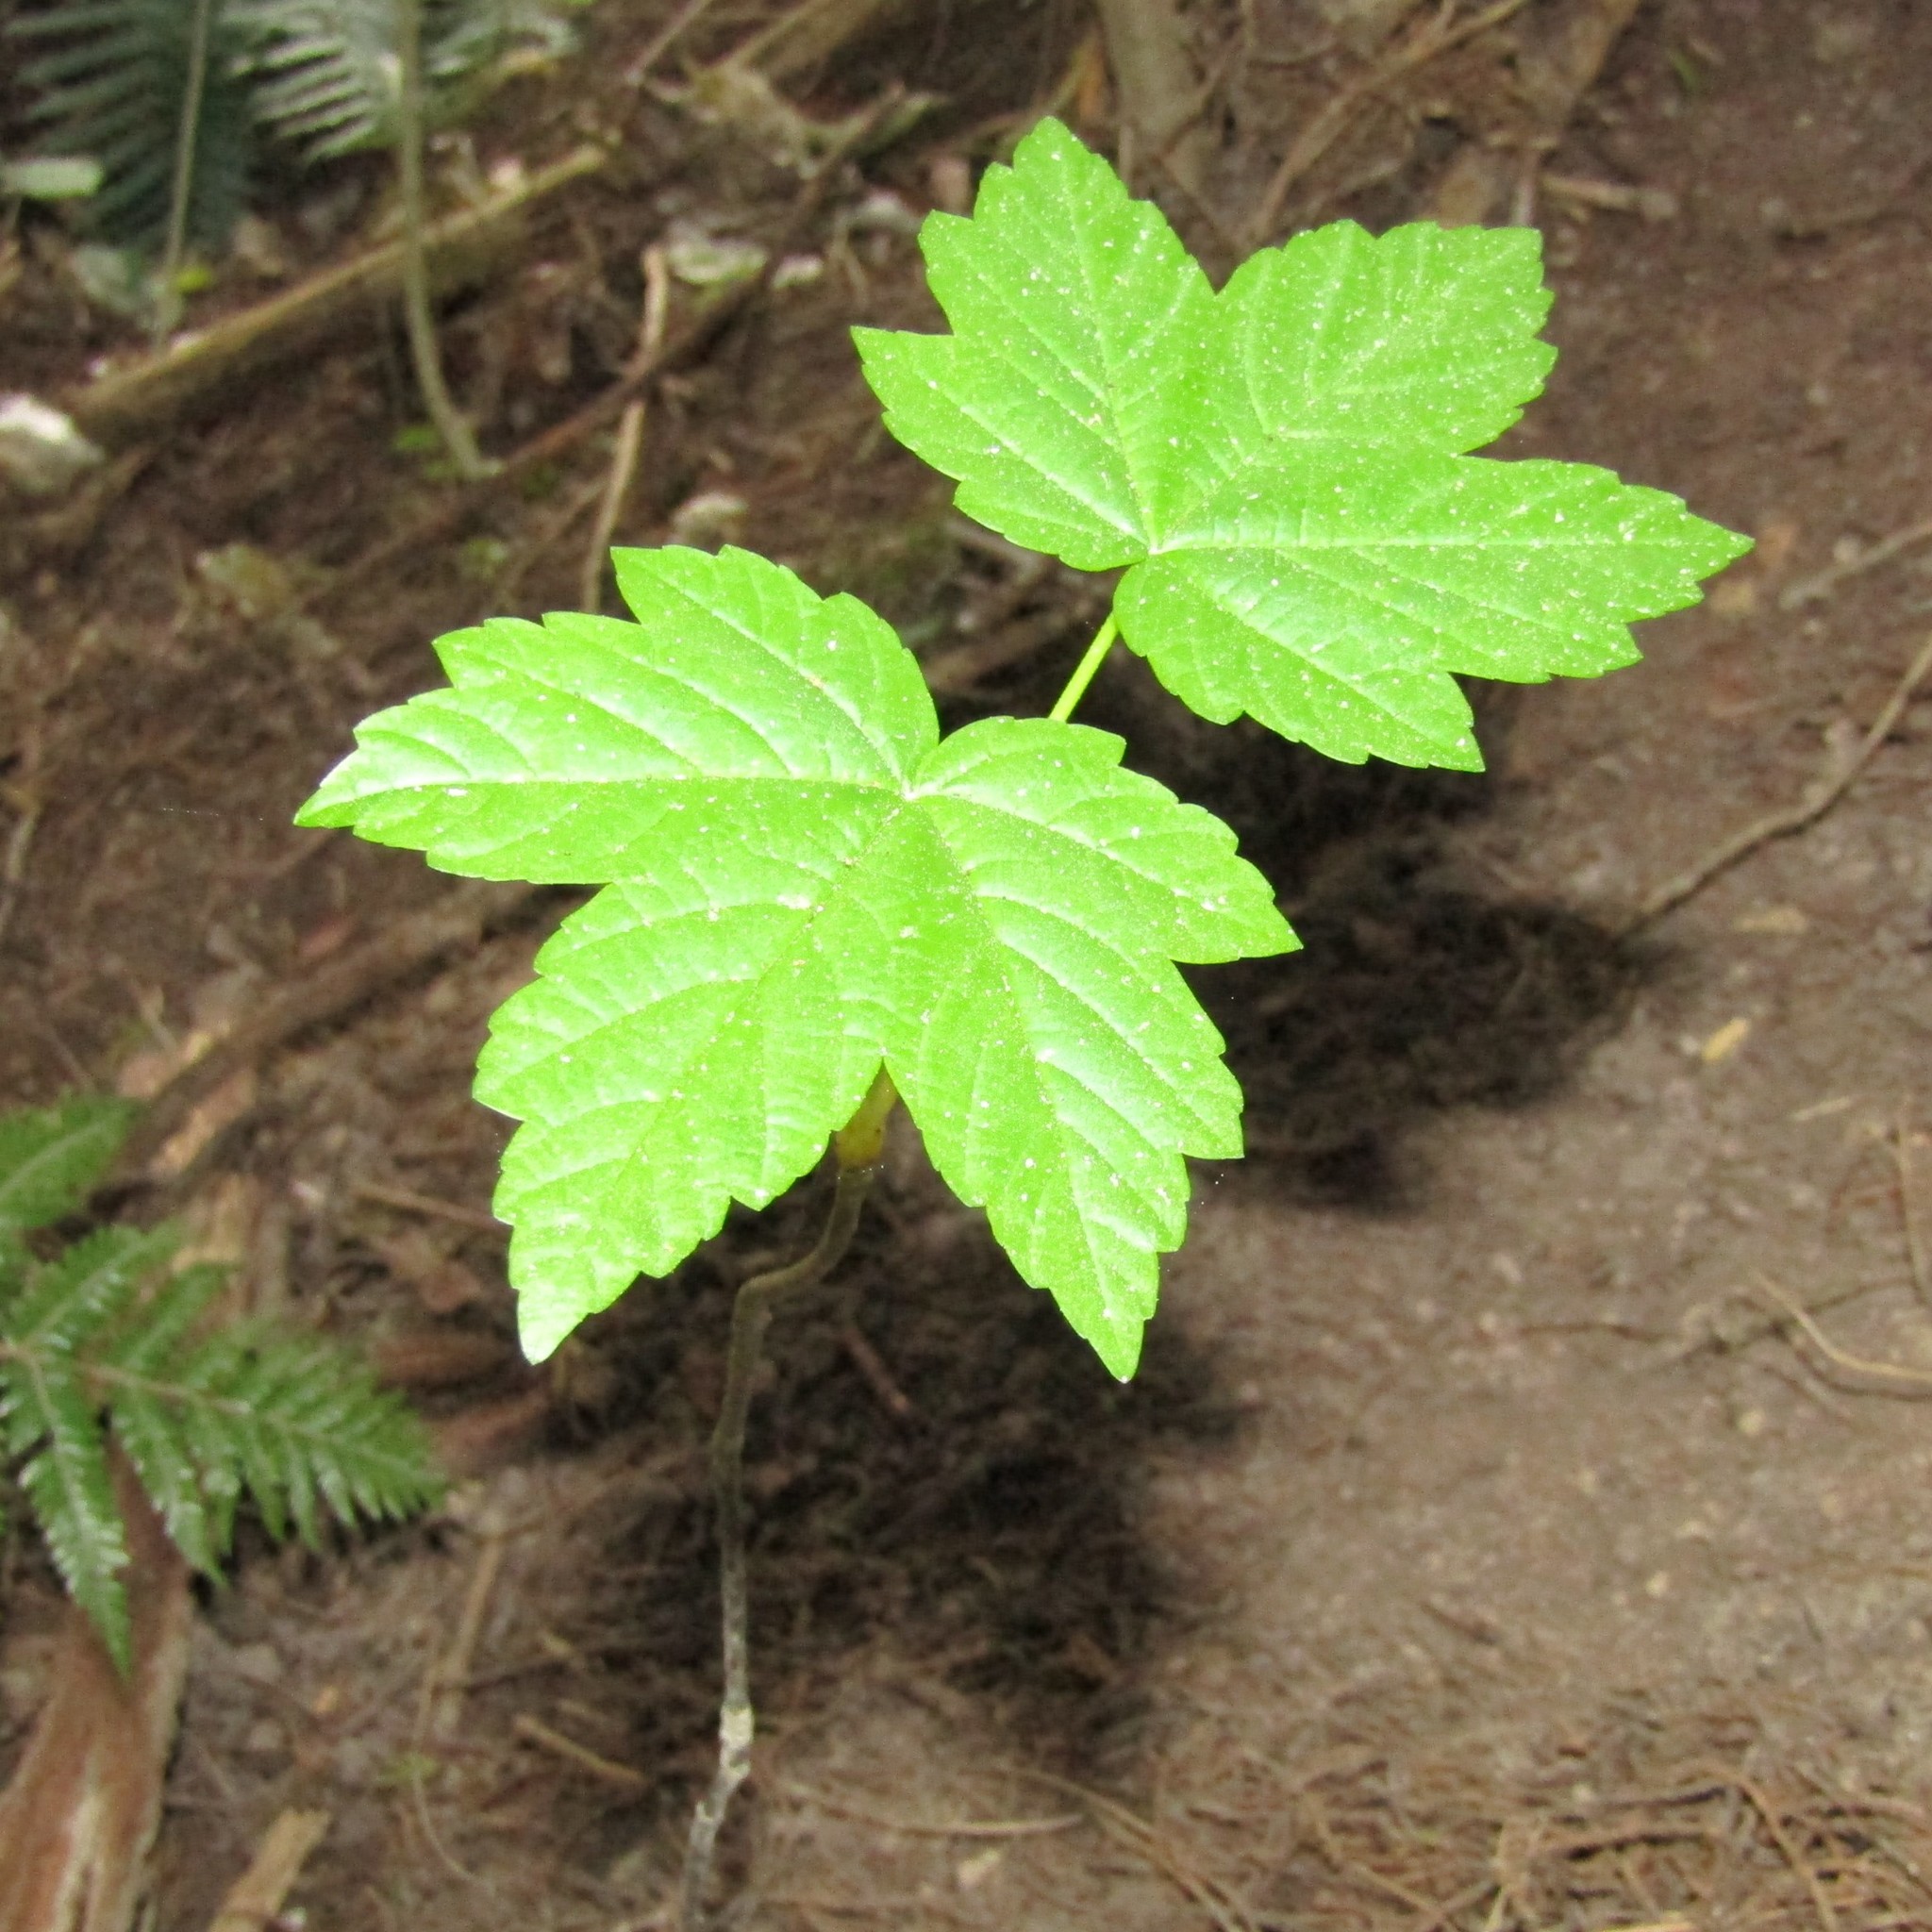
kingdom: Plantae
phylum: Tracheophyta
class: Magnoliopsida
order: Sapindales
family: Sapindaceae
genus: Acer
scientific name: Acer pseudoplatanus
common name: Sycamore
